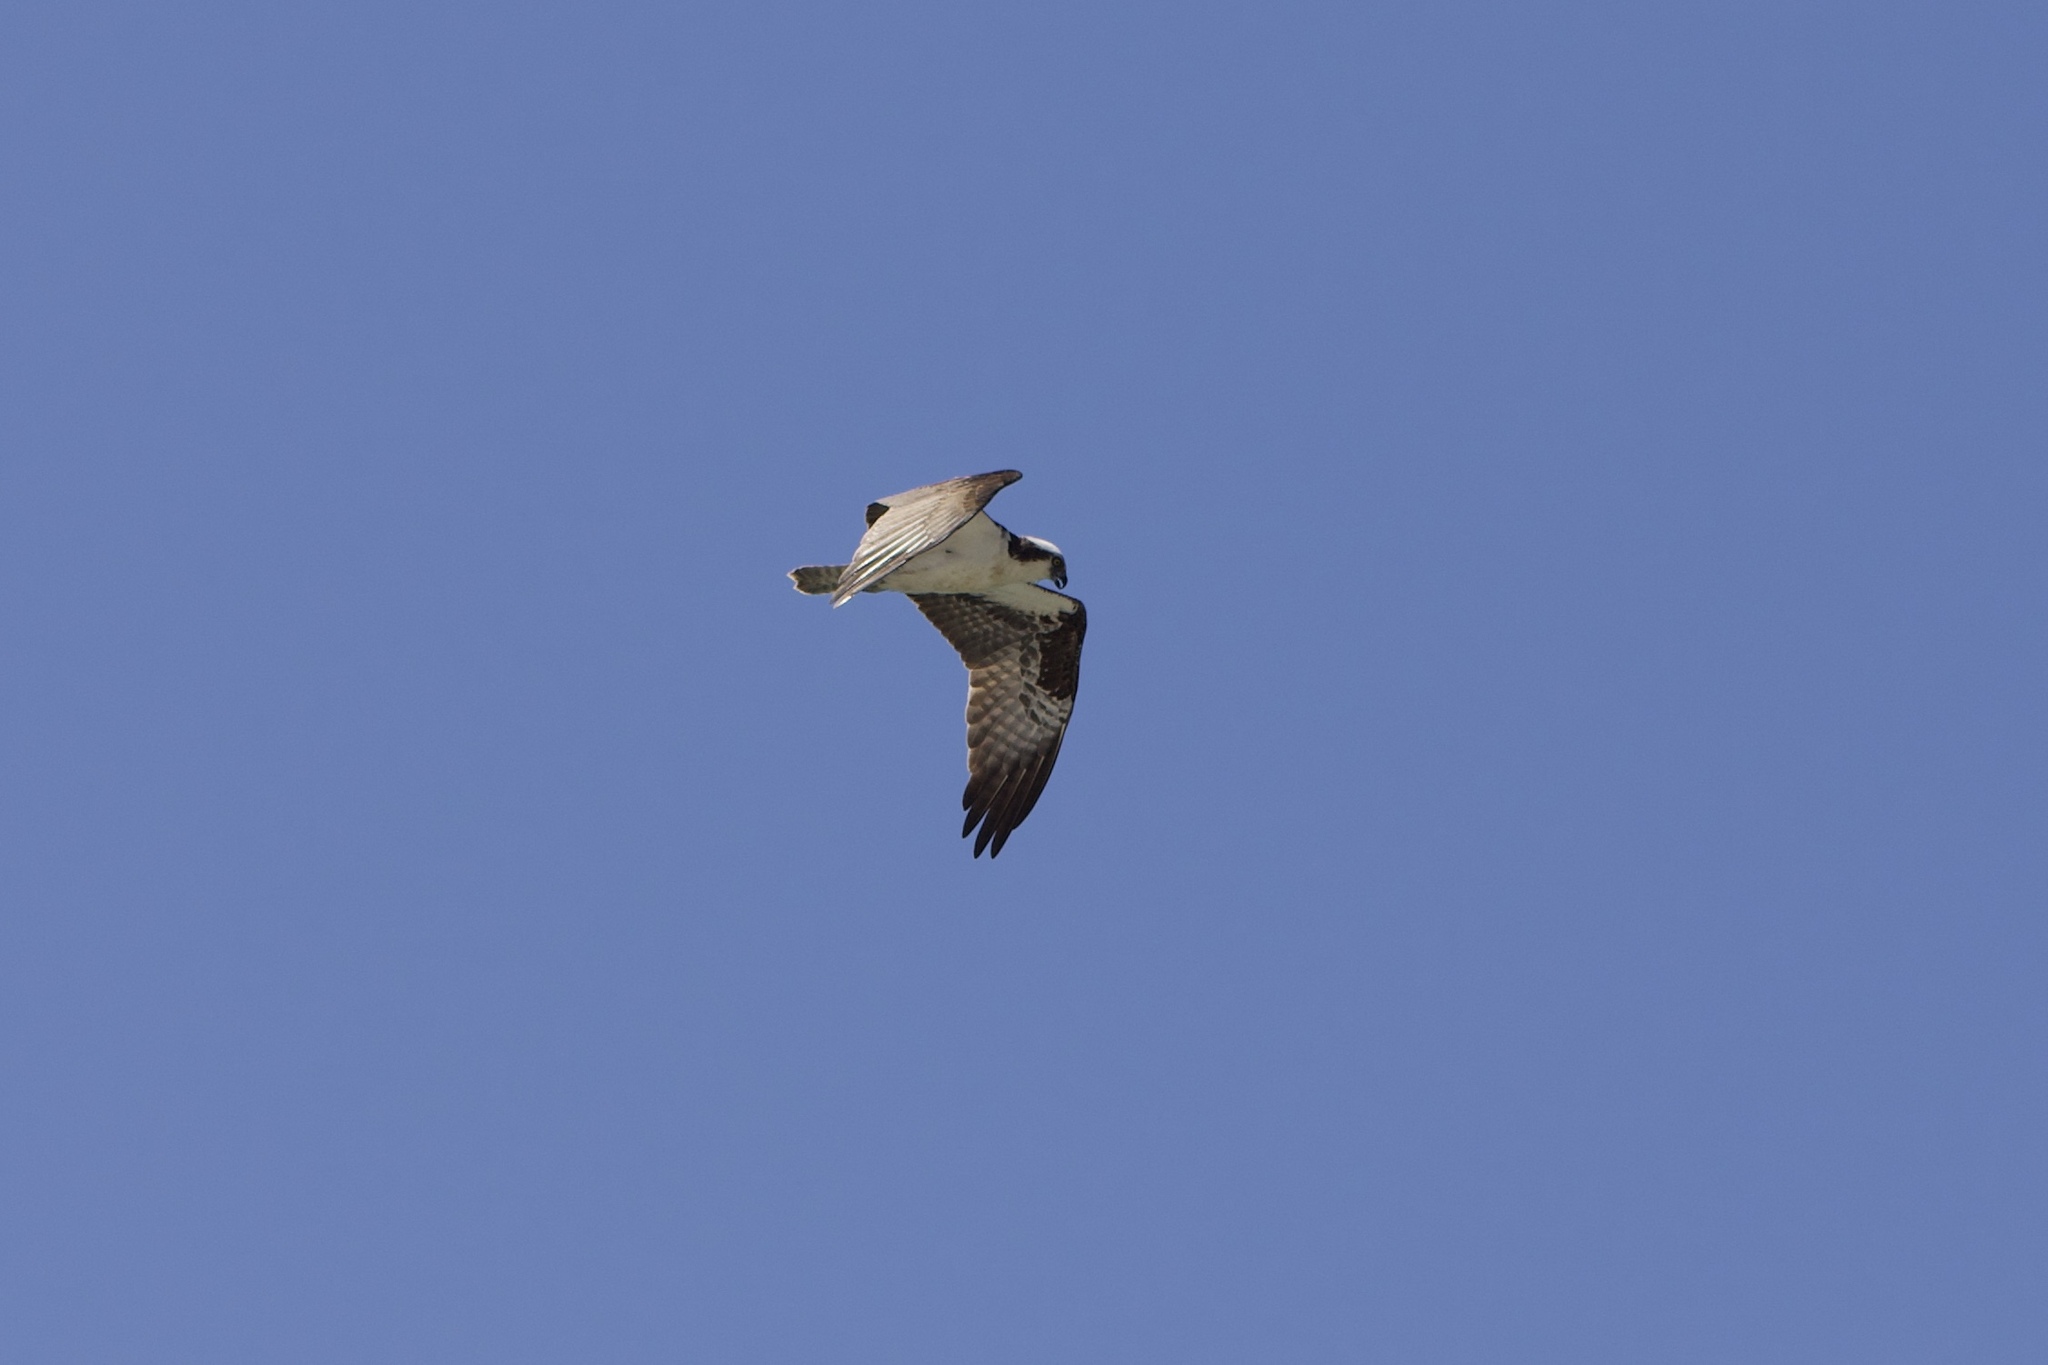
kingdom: Animalia
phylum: Chordata
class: Aves
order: Accipitriformes
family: Pandionidae
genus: Pandion
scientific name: Pandion haliaetus
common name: Osprey
